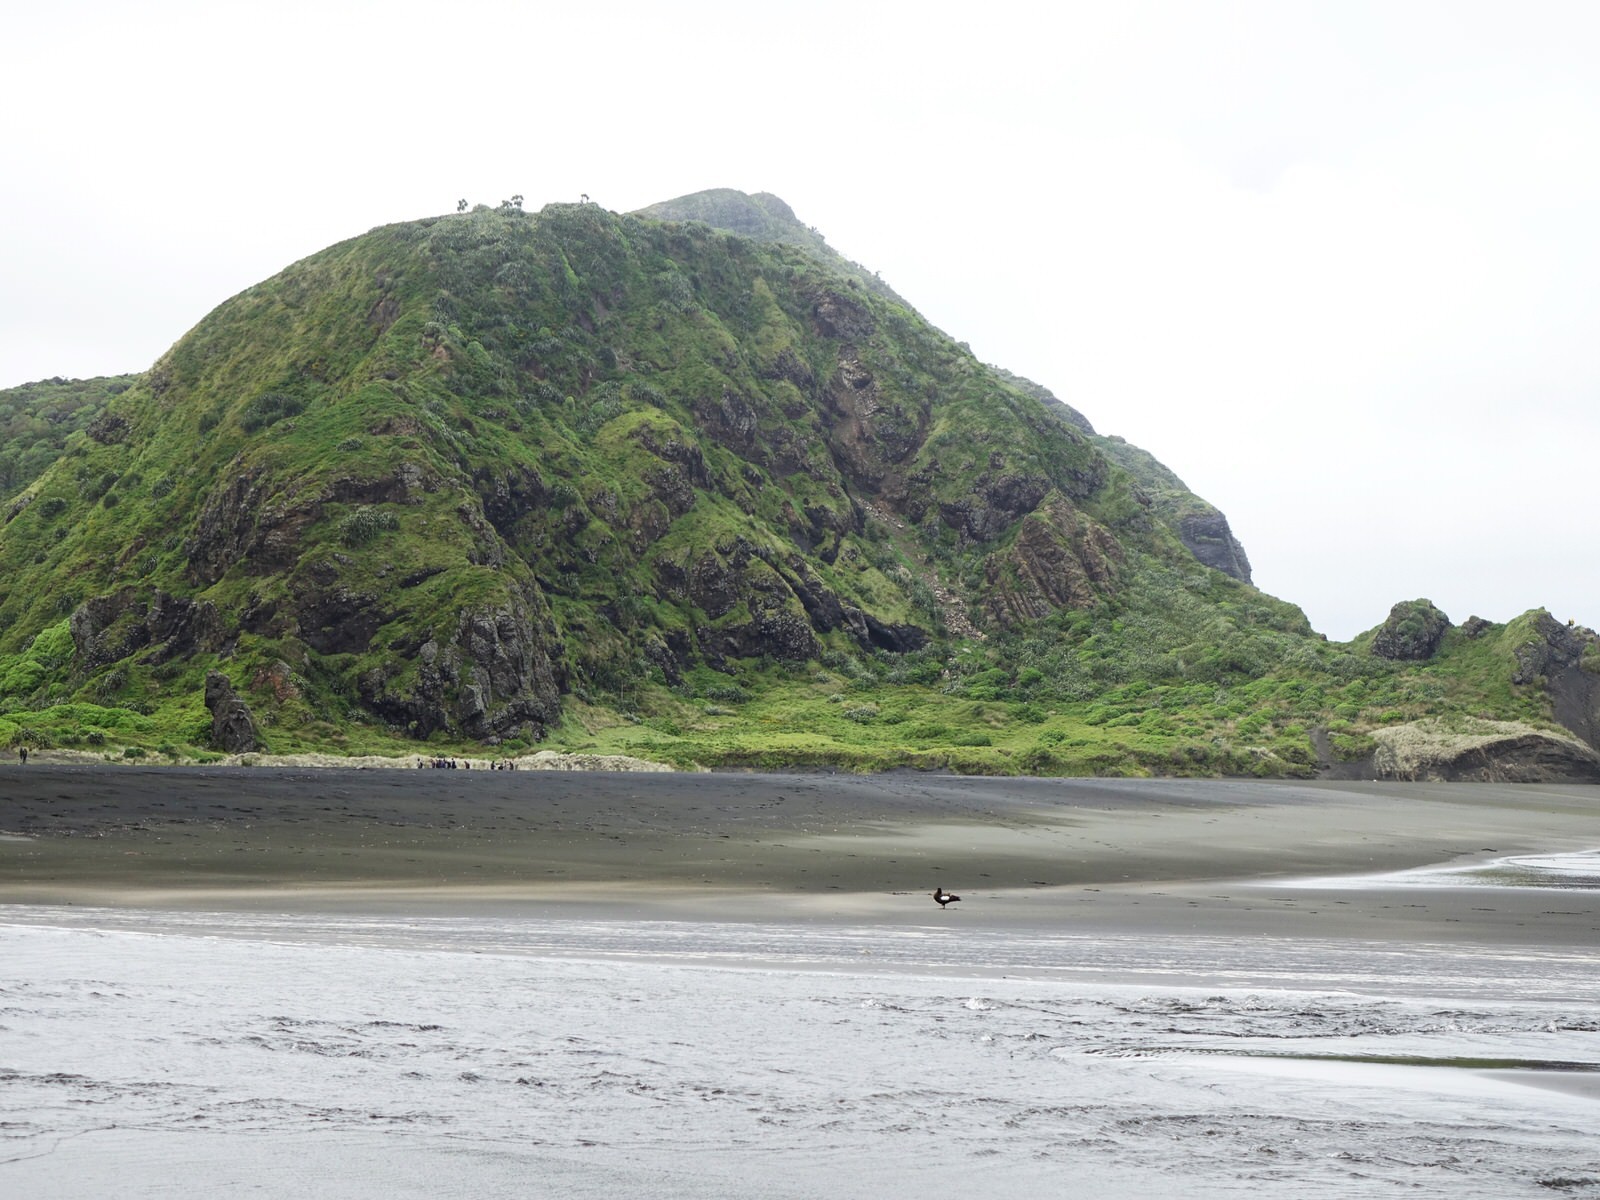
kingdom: Animalia
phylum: Chordata
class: Aves
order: Anseriformes
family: Anatidae
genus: Tadorna
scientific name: Tadorna variegata
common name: Paradise shelduck
